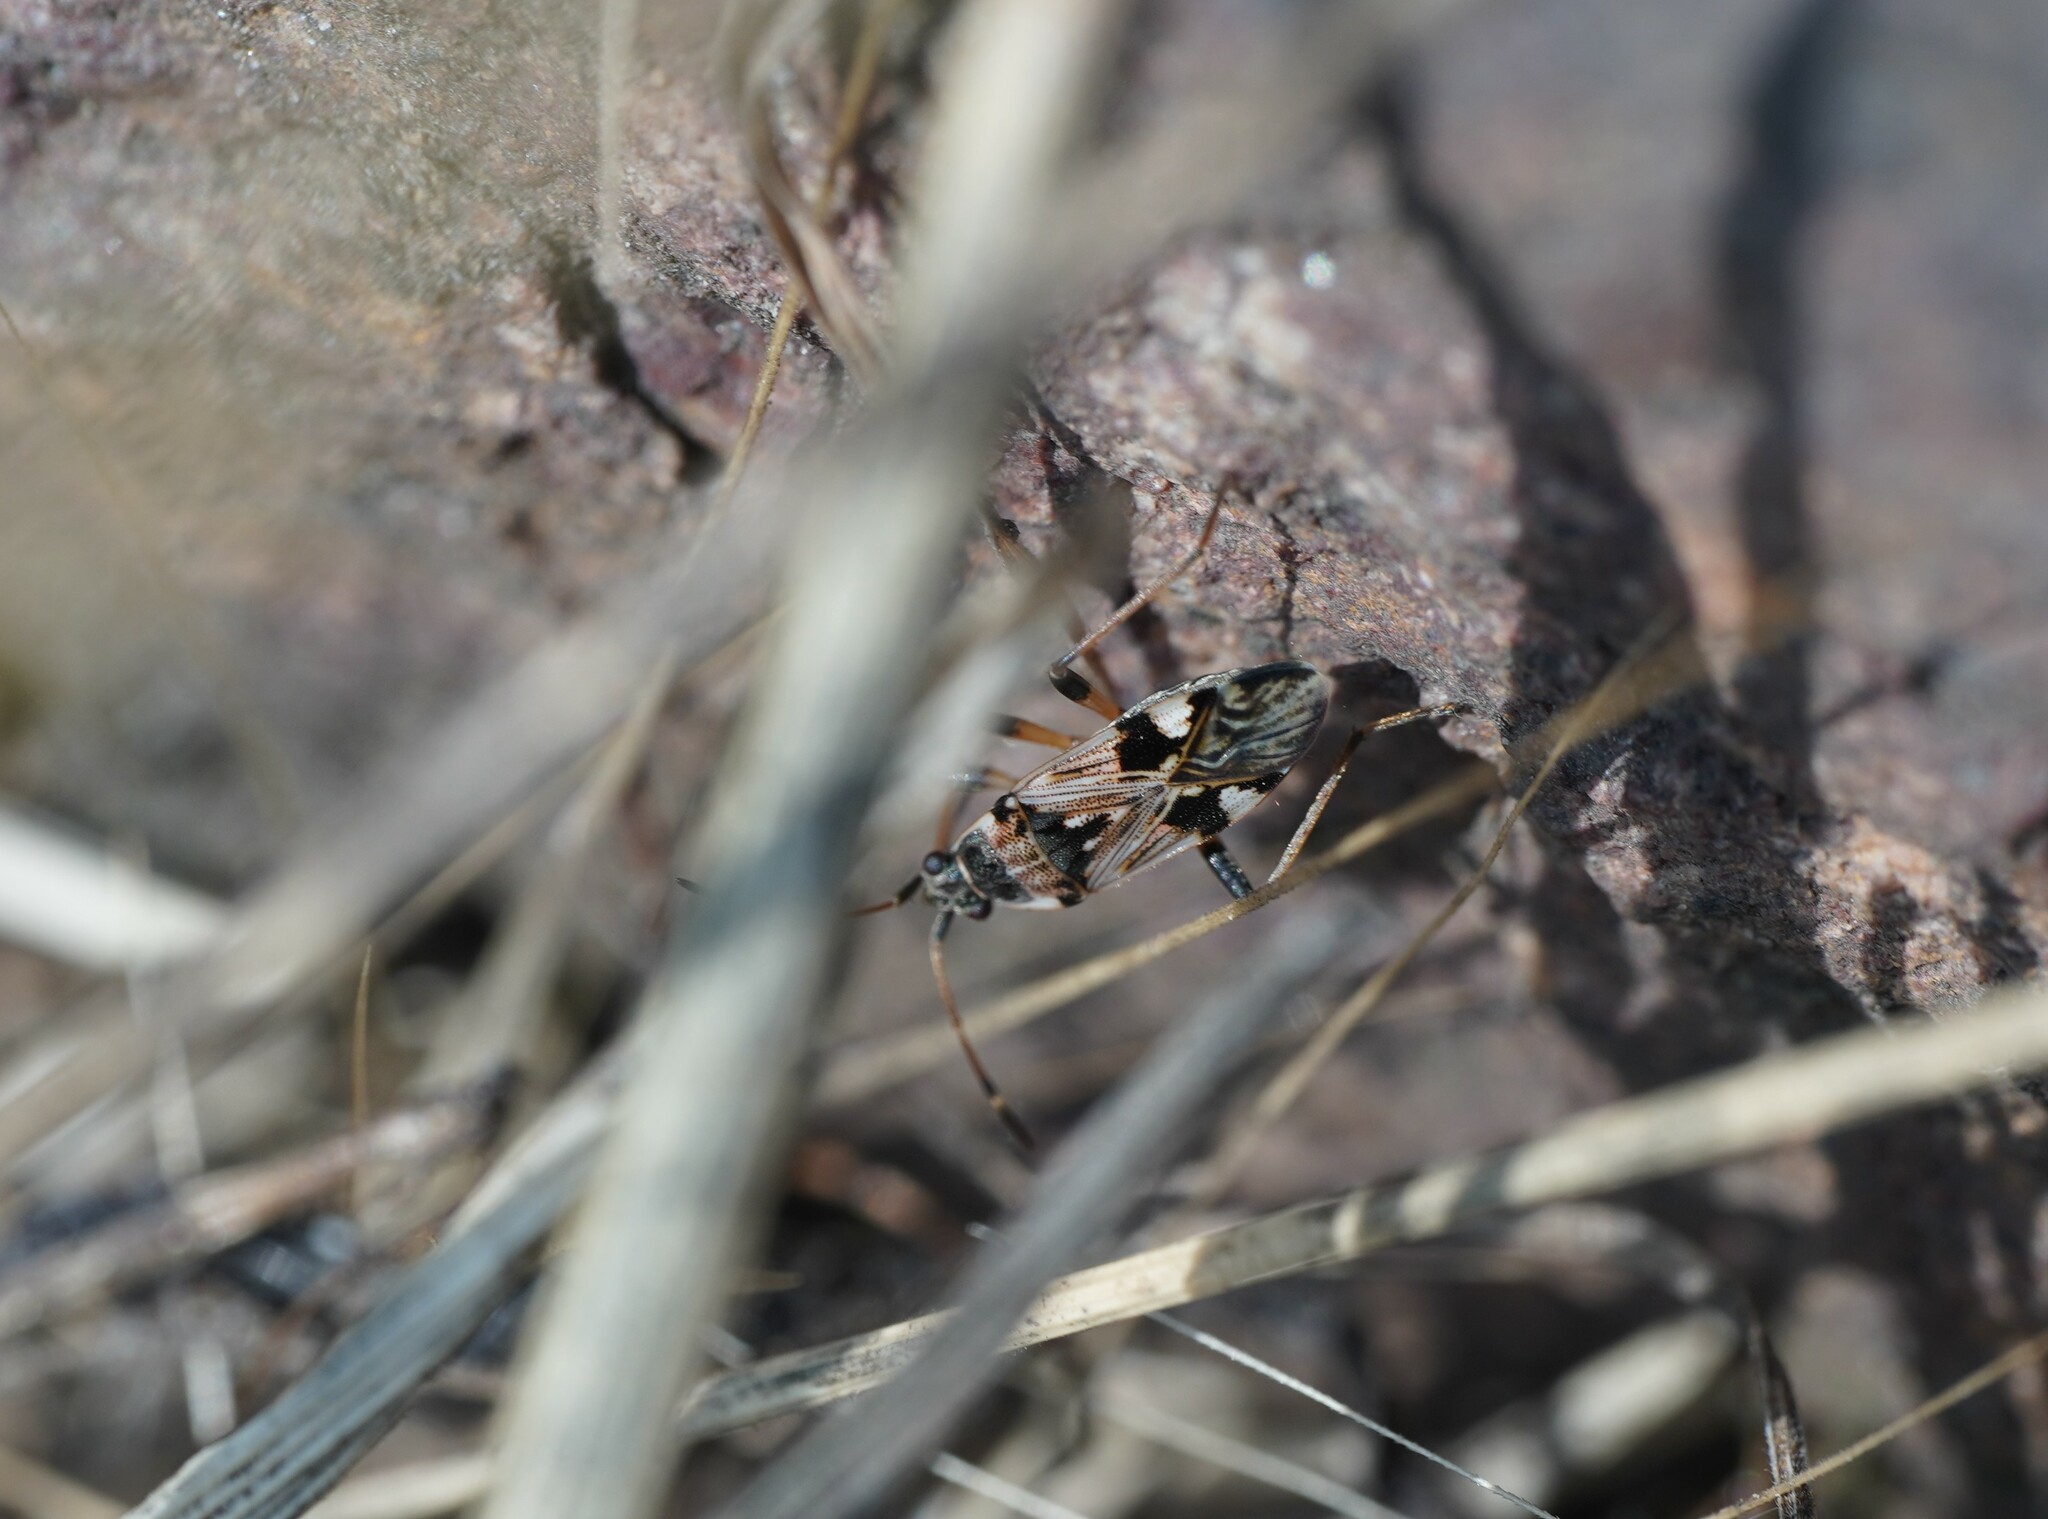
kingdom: Animalia
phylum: Arthropoda
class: Insecta
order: Hemiptera
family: Rhyparochromidae
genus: Beosus
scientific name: Beosus maritimus
